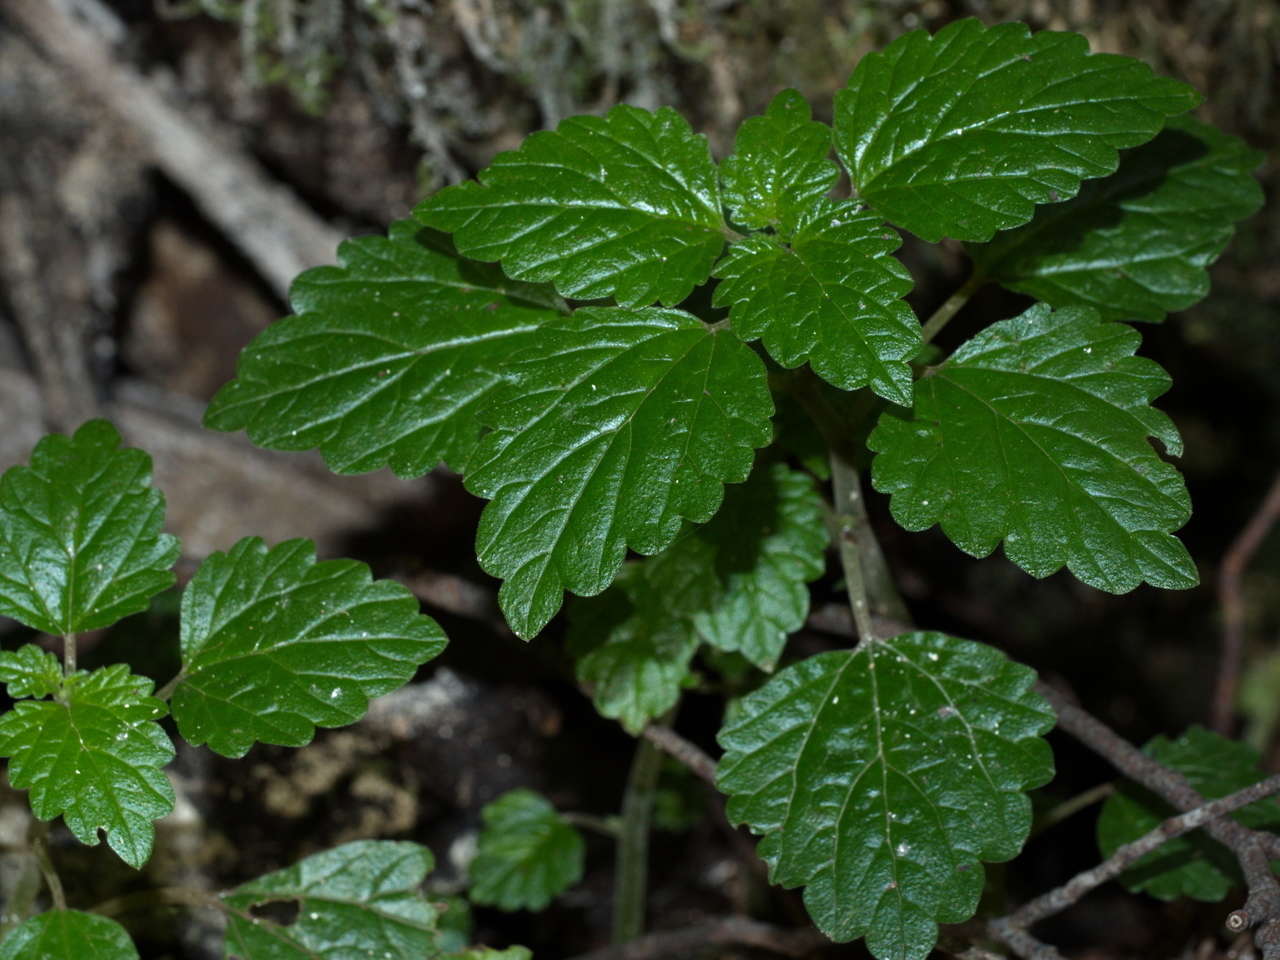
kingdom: Plantae
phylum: Tracheophyta
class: Magnoliopsida
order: Rosales
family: Urticaceae
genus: Australina
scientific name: Australina pusilla
